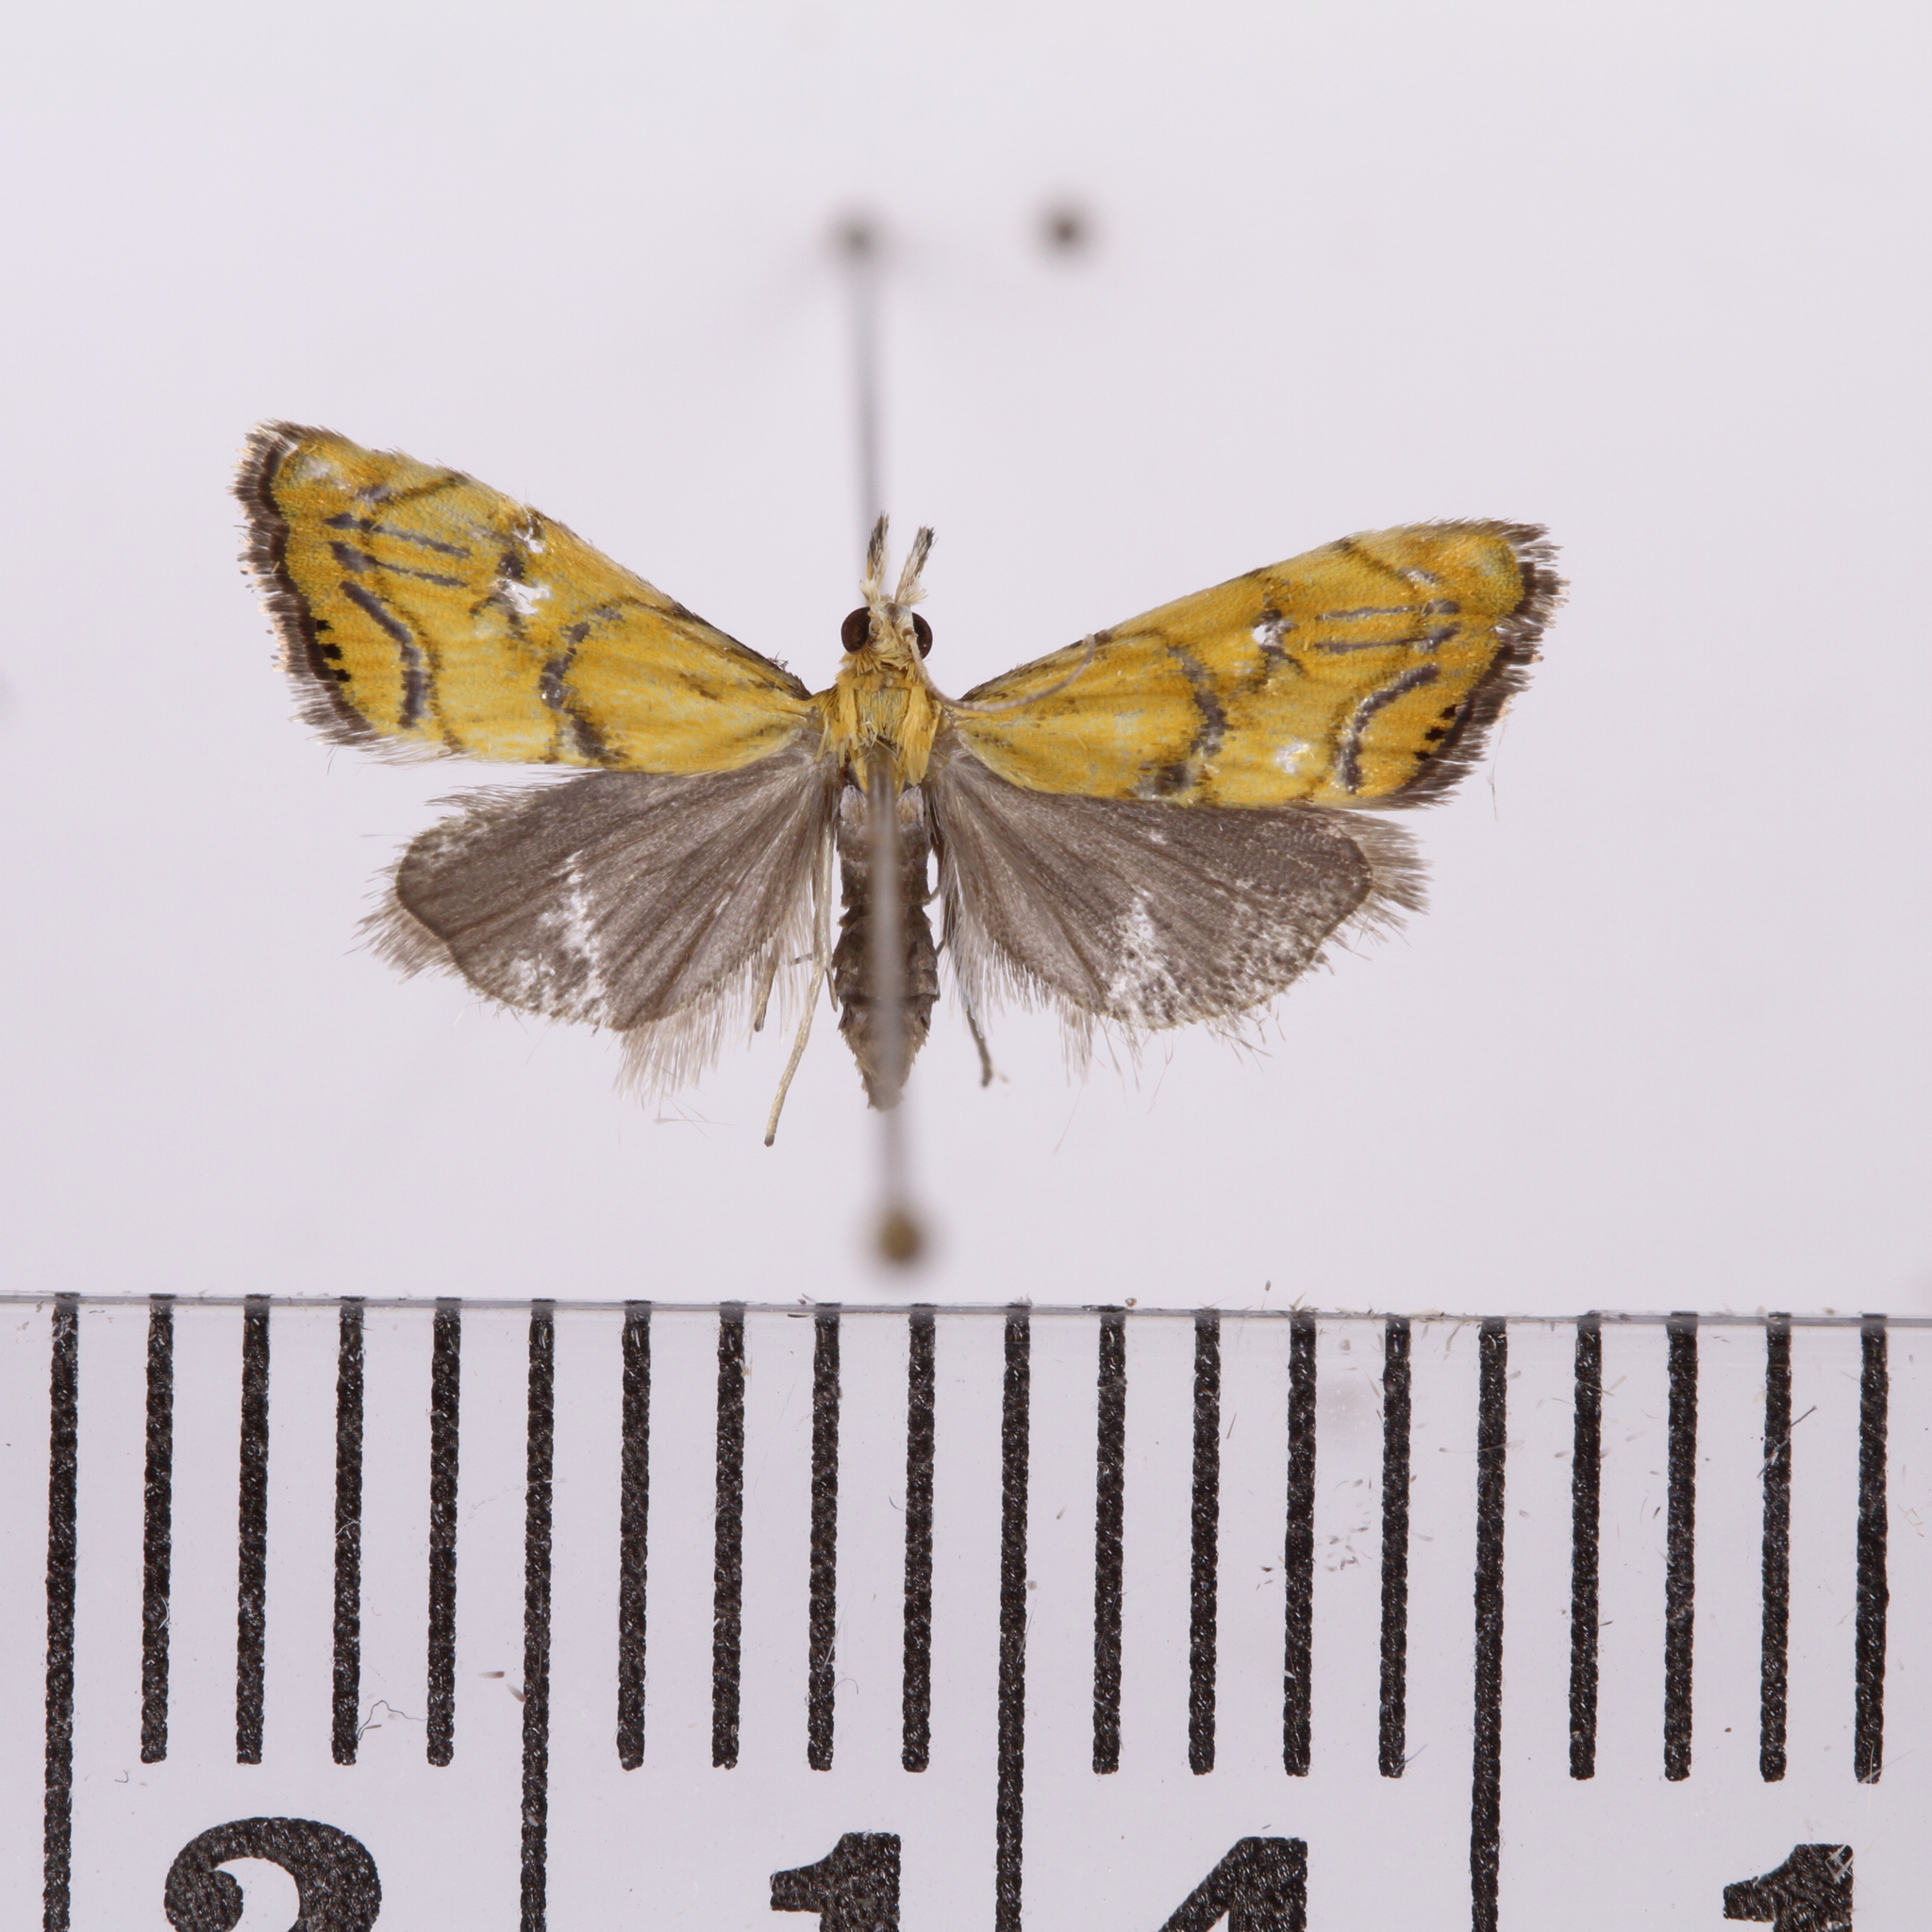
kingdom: Animalia
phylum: Arthropoda
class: Insecta
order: Lepidoptera
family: Crambidae
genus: Glaucocharis
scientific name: Glaucocharis auriscriptella
